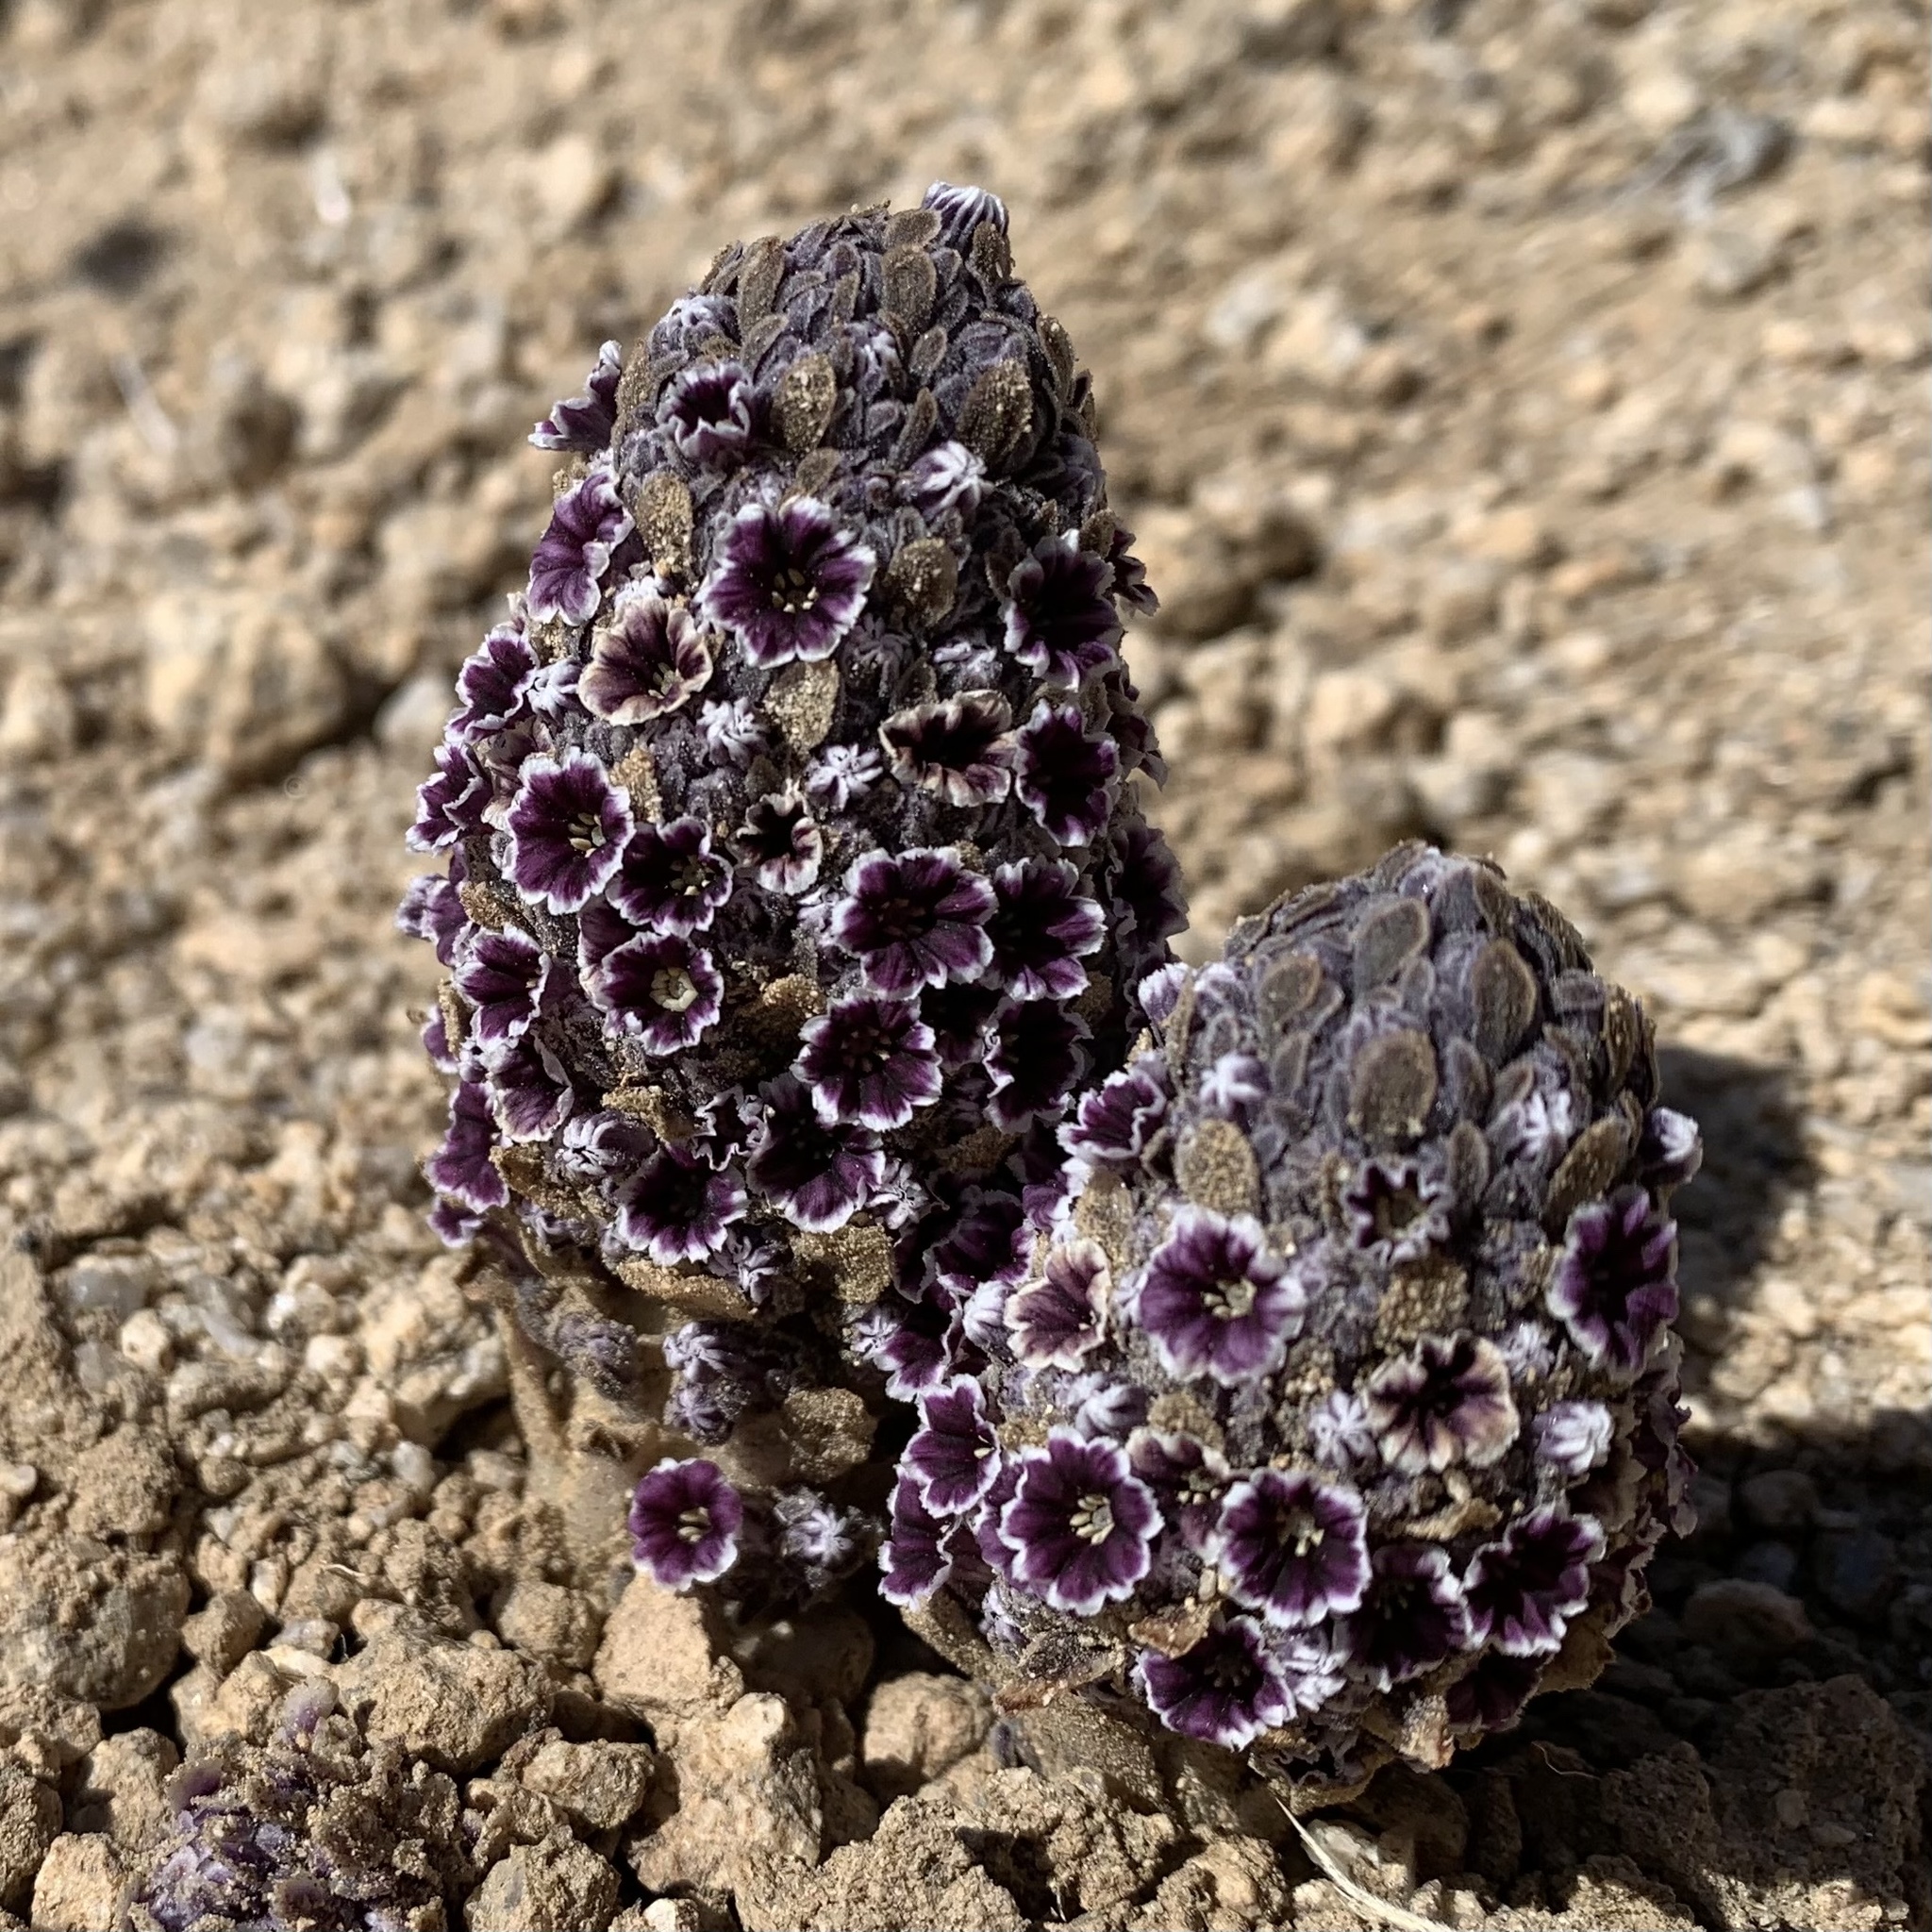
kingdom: Plantae
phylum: Tracheophyta
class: Magnoliopsida
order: Boraginales
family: Lennoaceae
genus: Pholisma
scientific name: Pholisma arenarium
